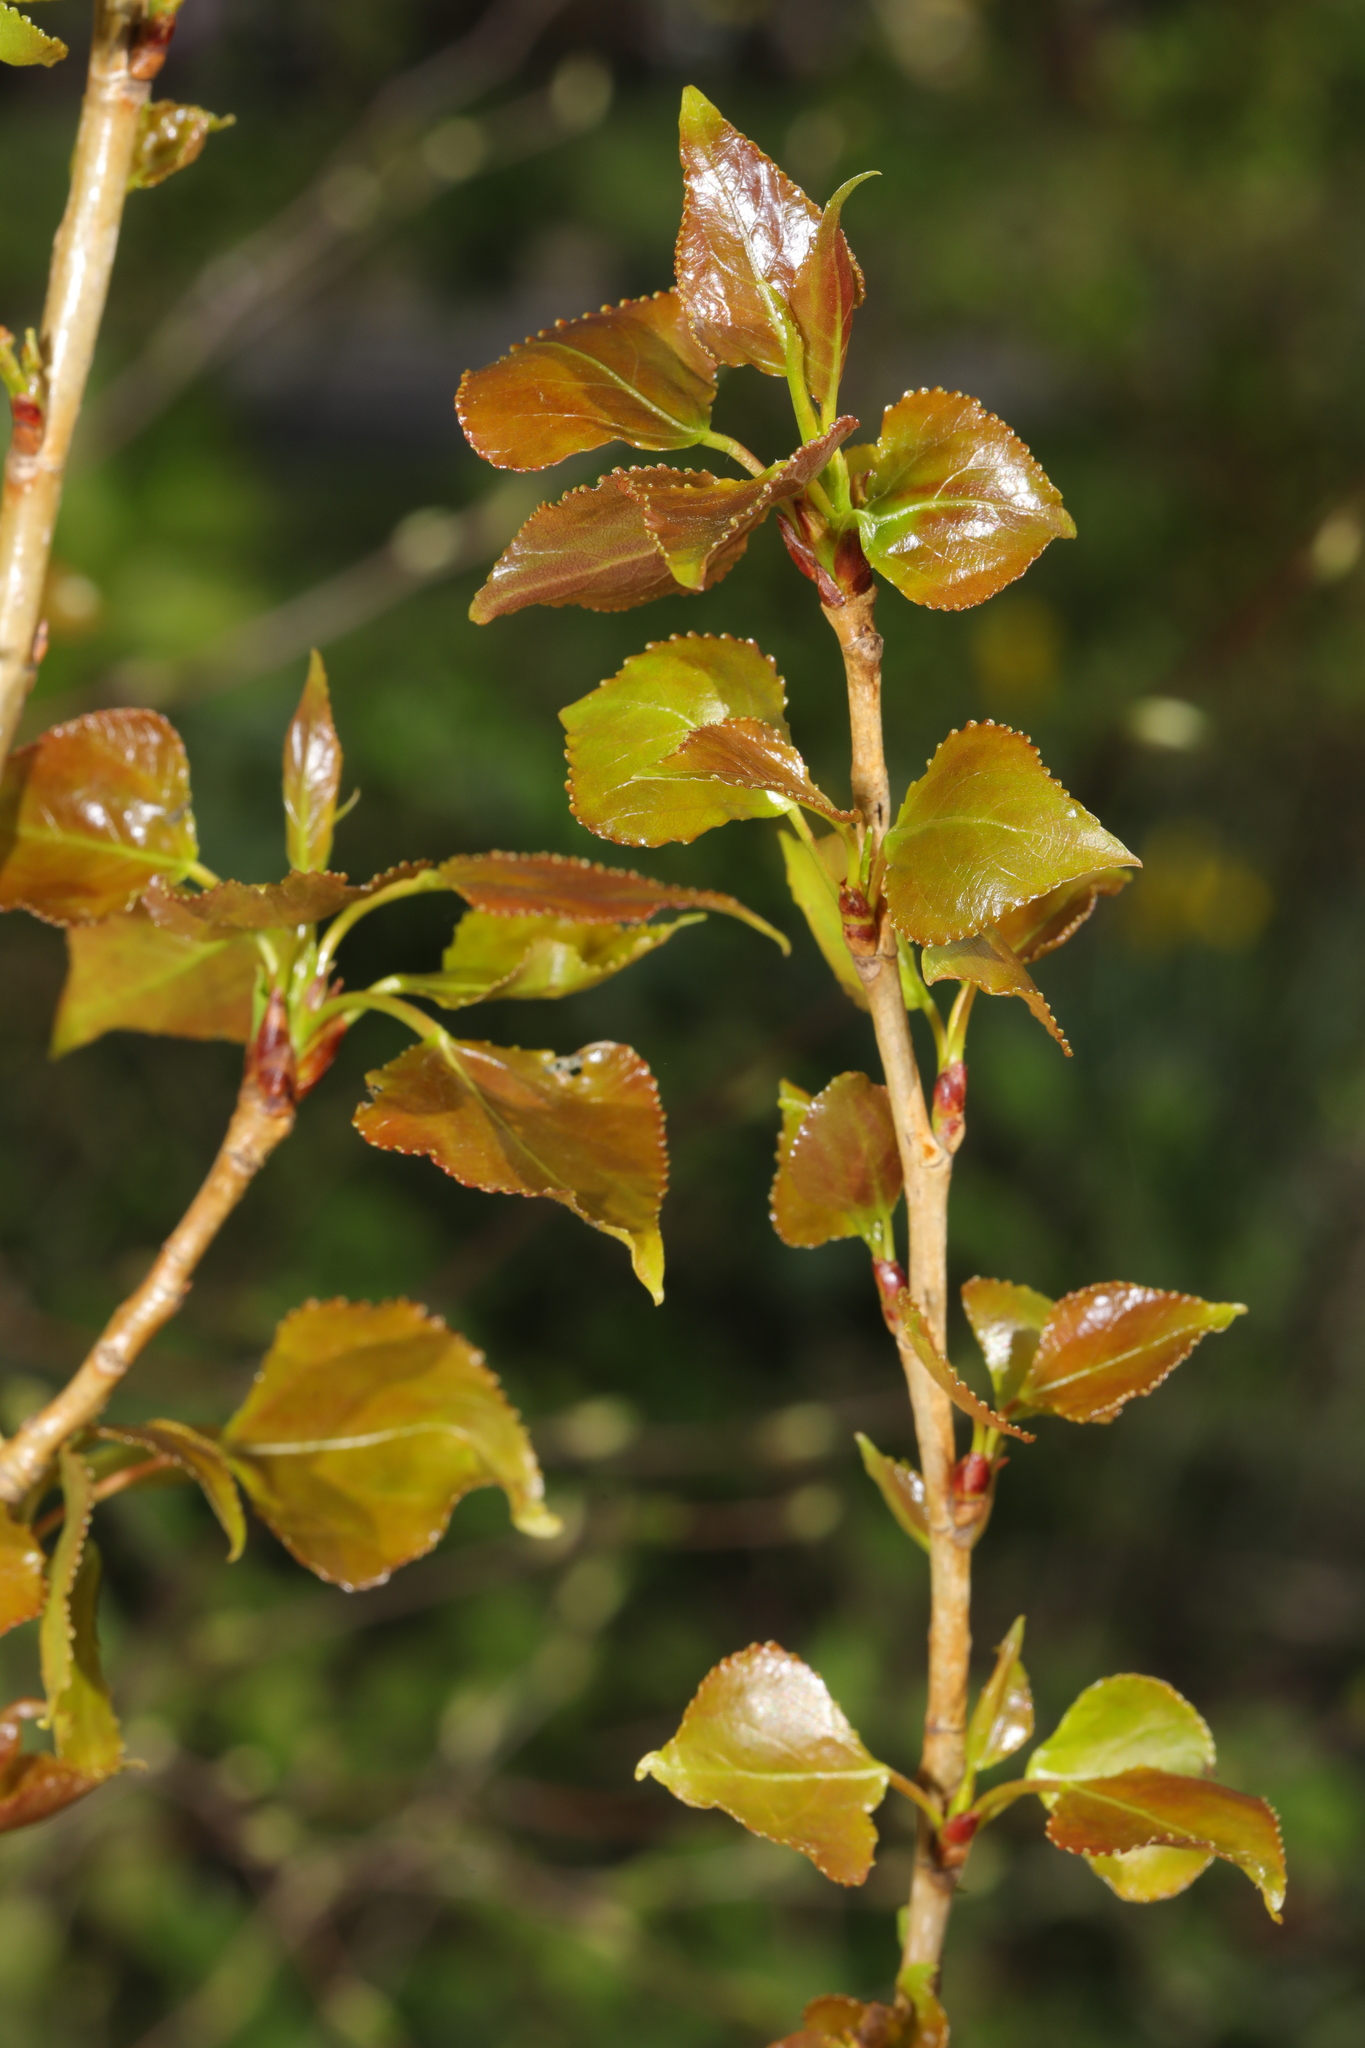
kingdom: Plantae
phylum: Tracheophyta
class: Magnoliopsida
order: Malpighiales
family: Salicaceae
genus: Populus
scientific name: Populus nigra
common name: Black poplar
